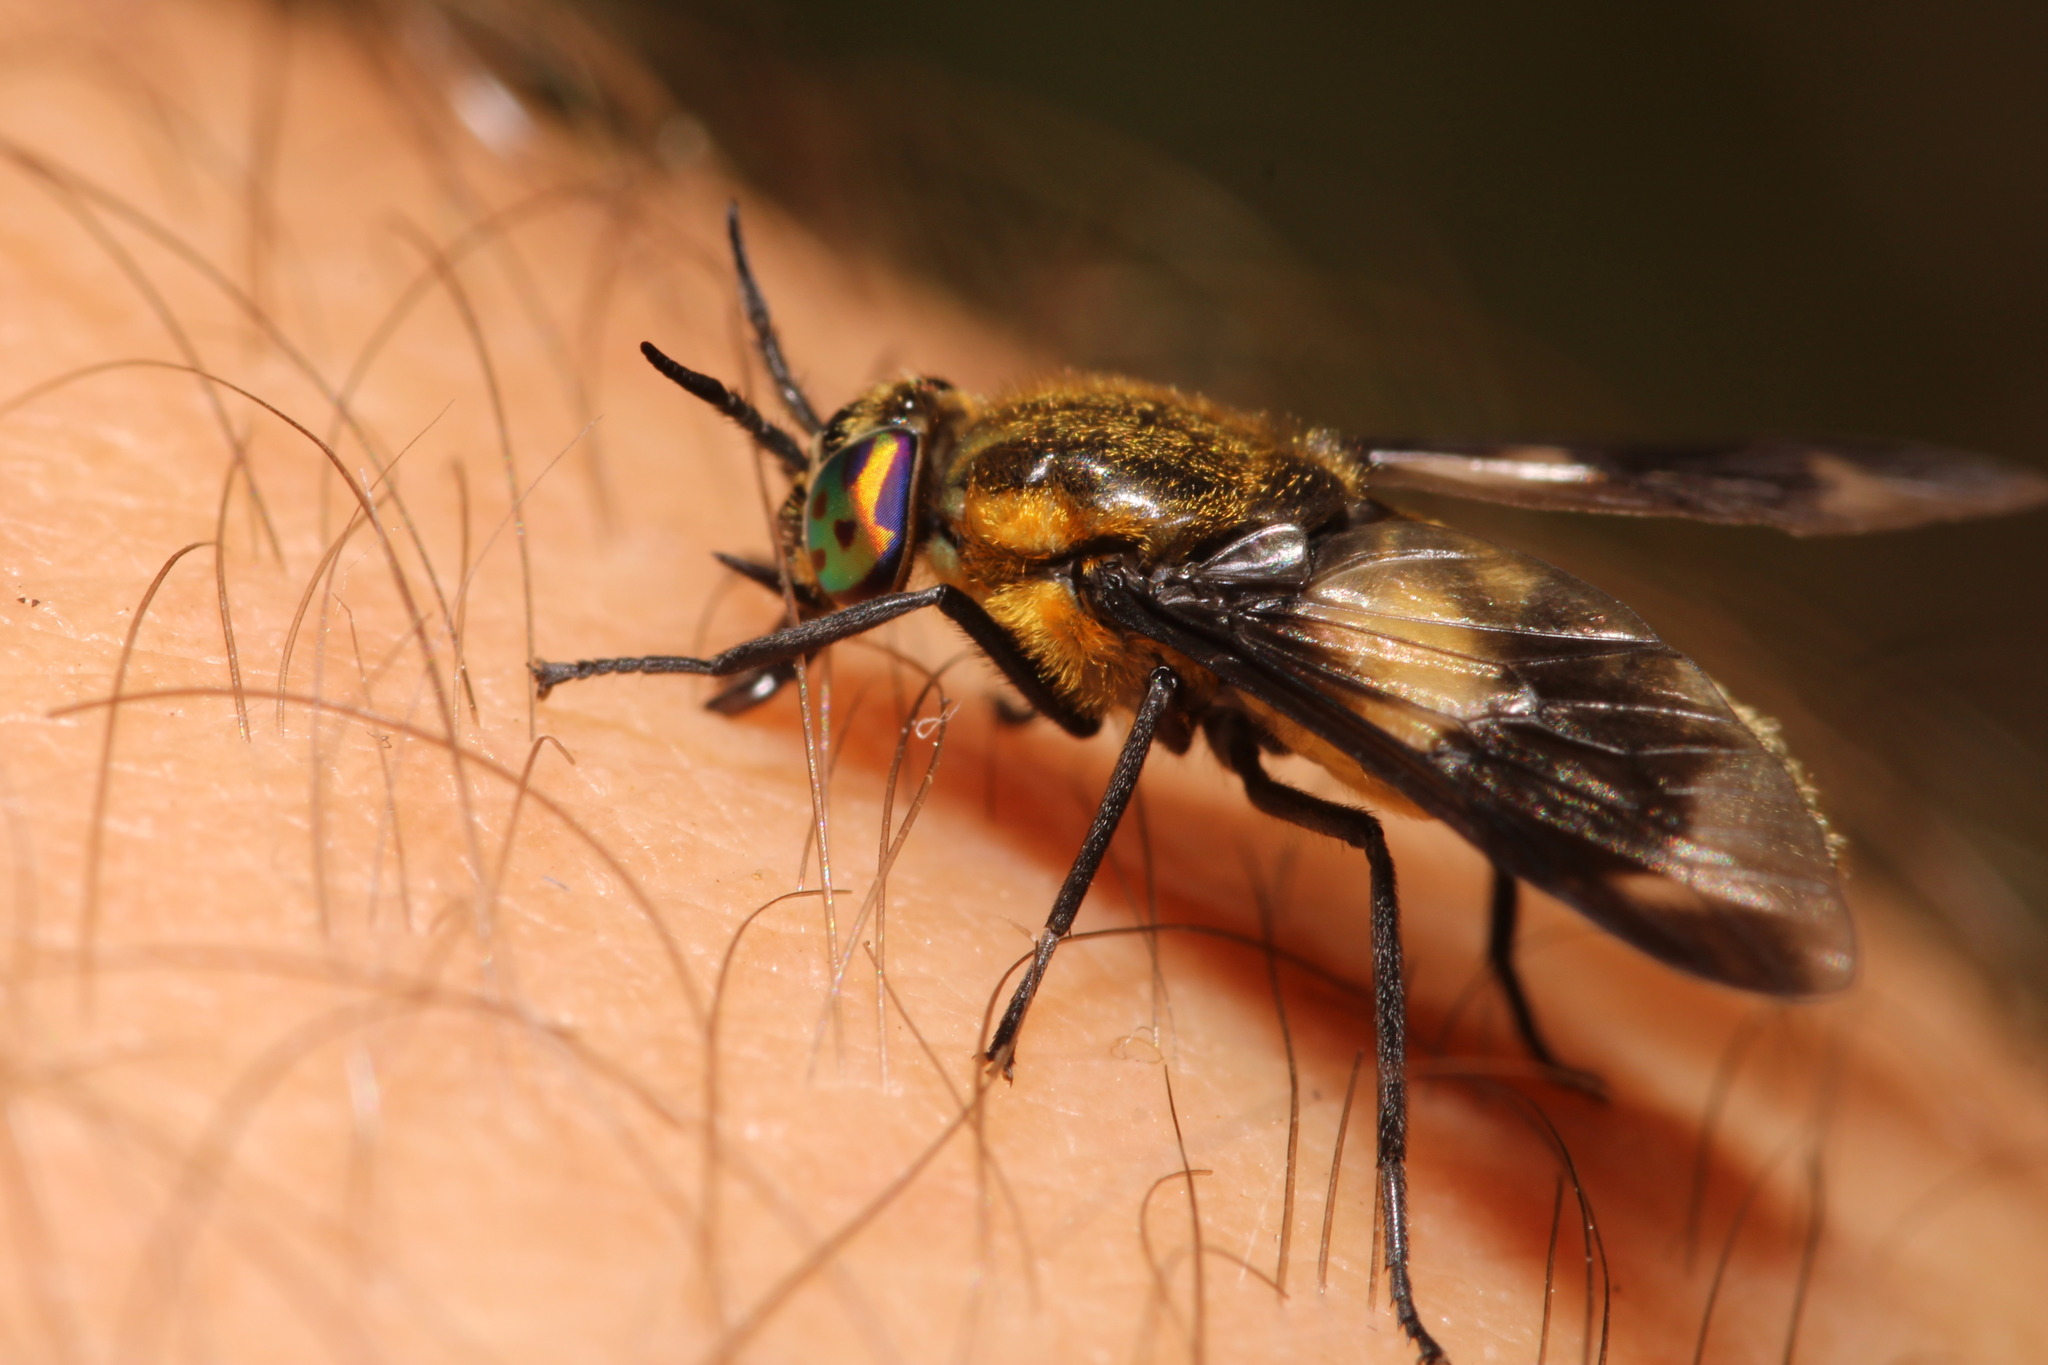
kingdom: Animalia
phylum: Arthropoda
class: Insecta
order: Diptera
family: Tabanidae
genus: Chrysops
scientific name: Chrysops caecutiens
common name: Splayed deerfly
